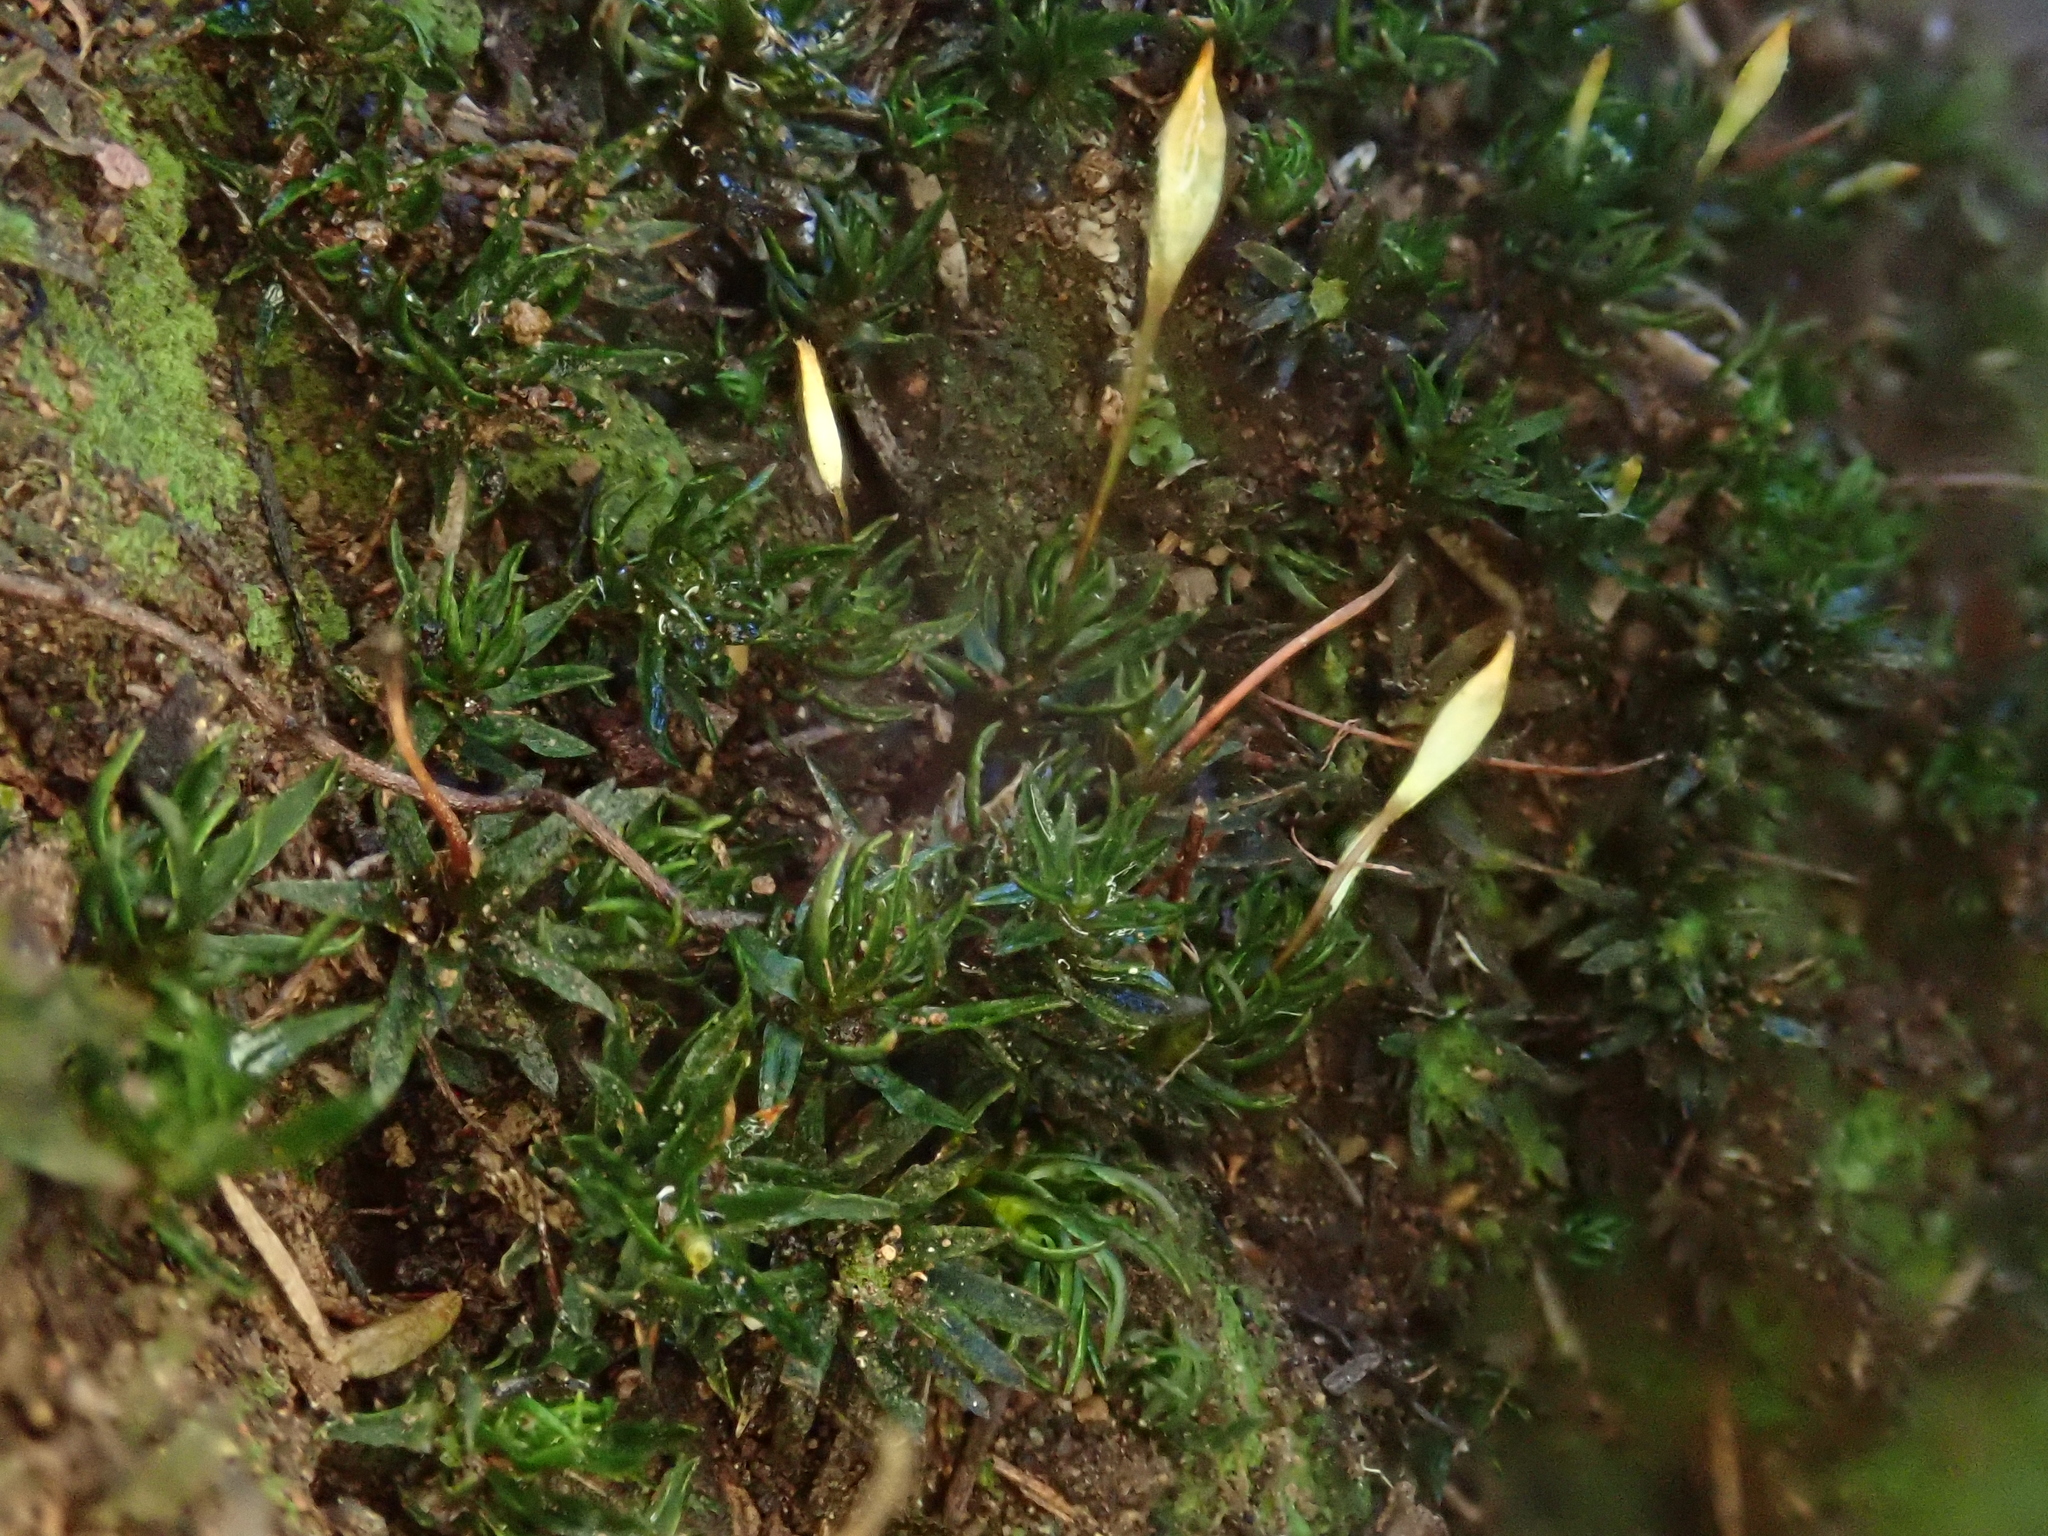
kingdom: Plantae
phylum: Bryophyta
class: Polytrichopsida
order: Polytrichales
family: Polytrichaceae
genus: Pogonatum
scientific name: Pogonatum aloides
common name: Aloe haircap
